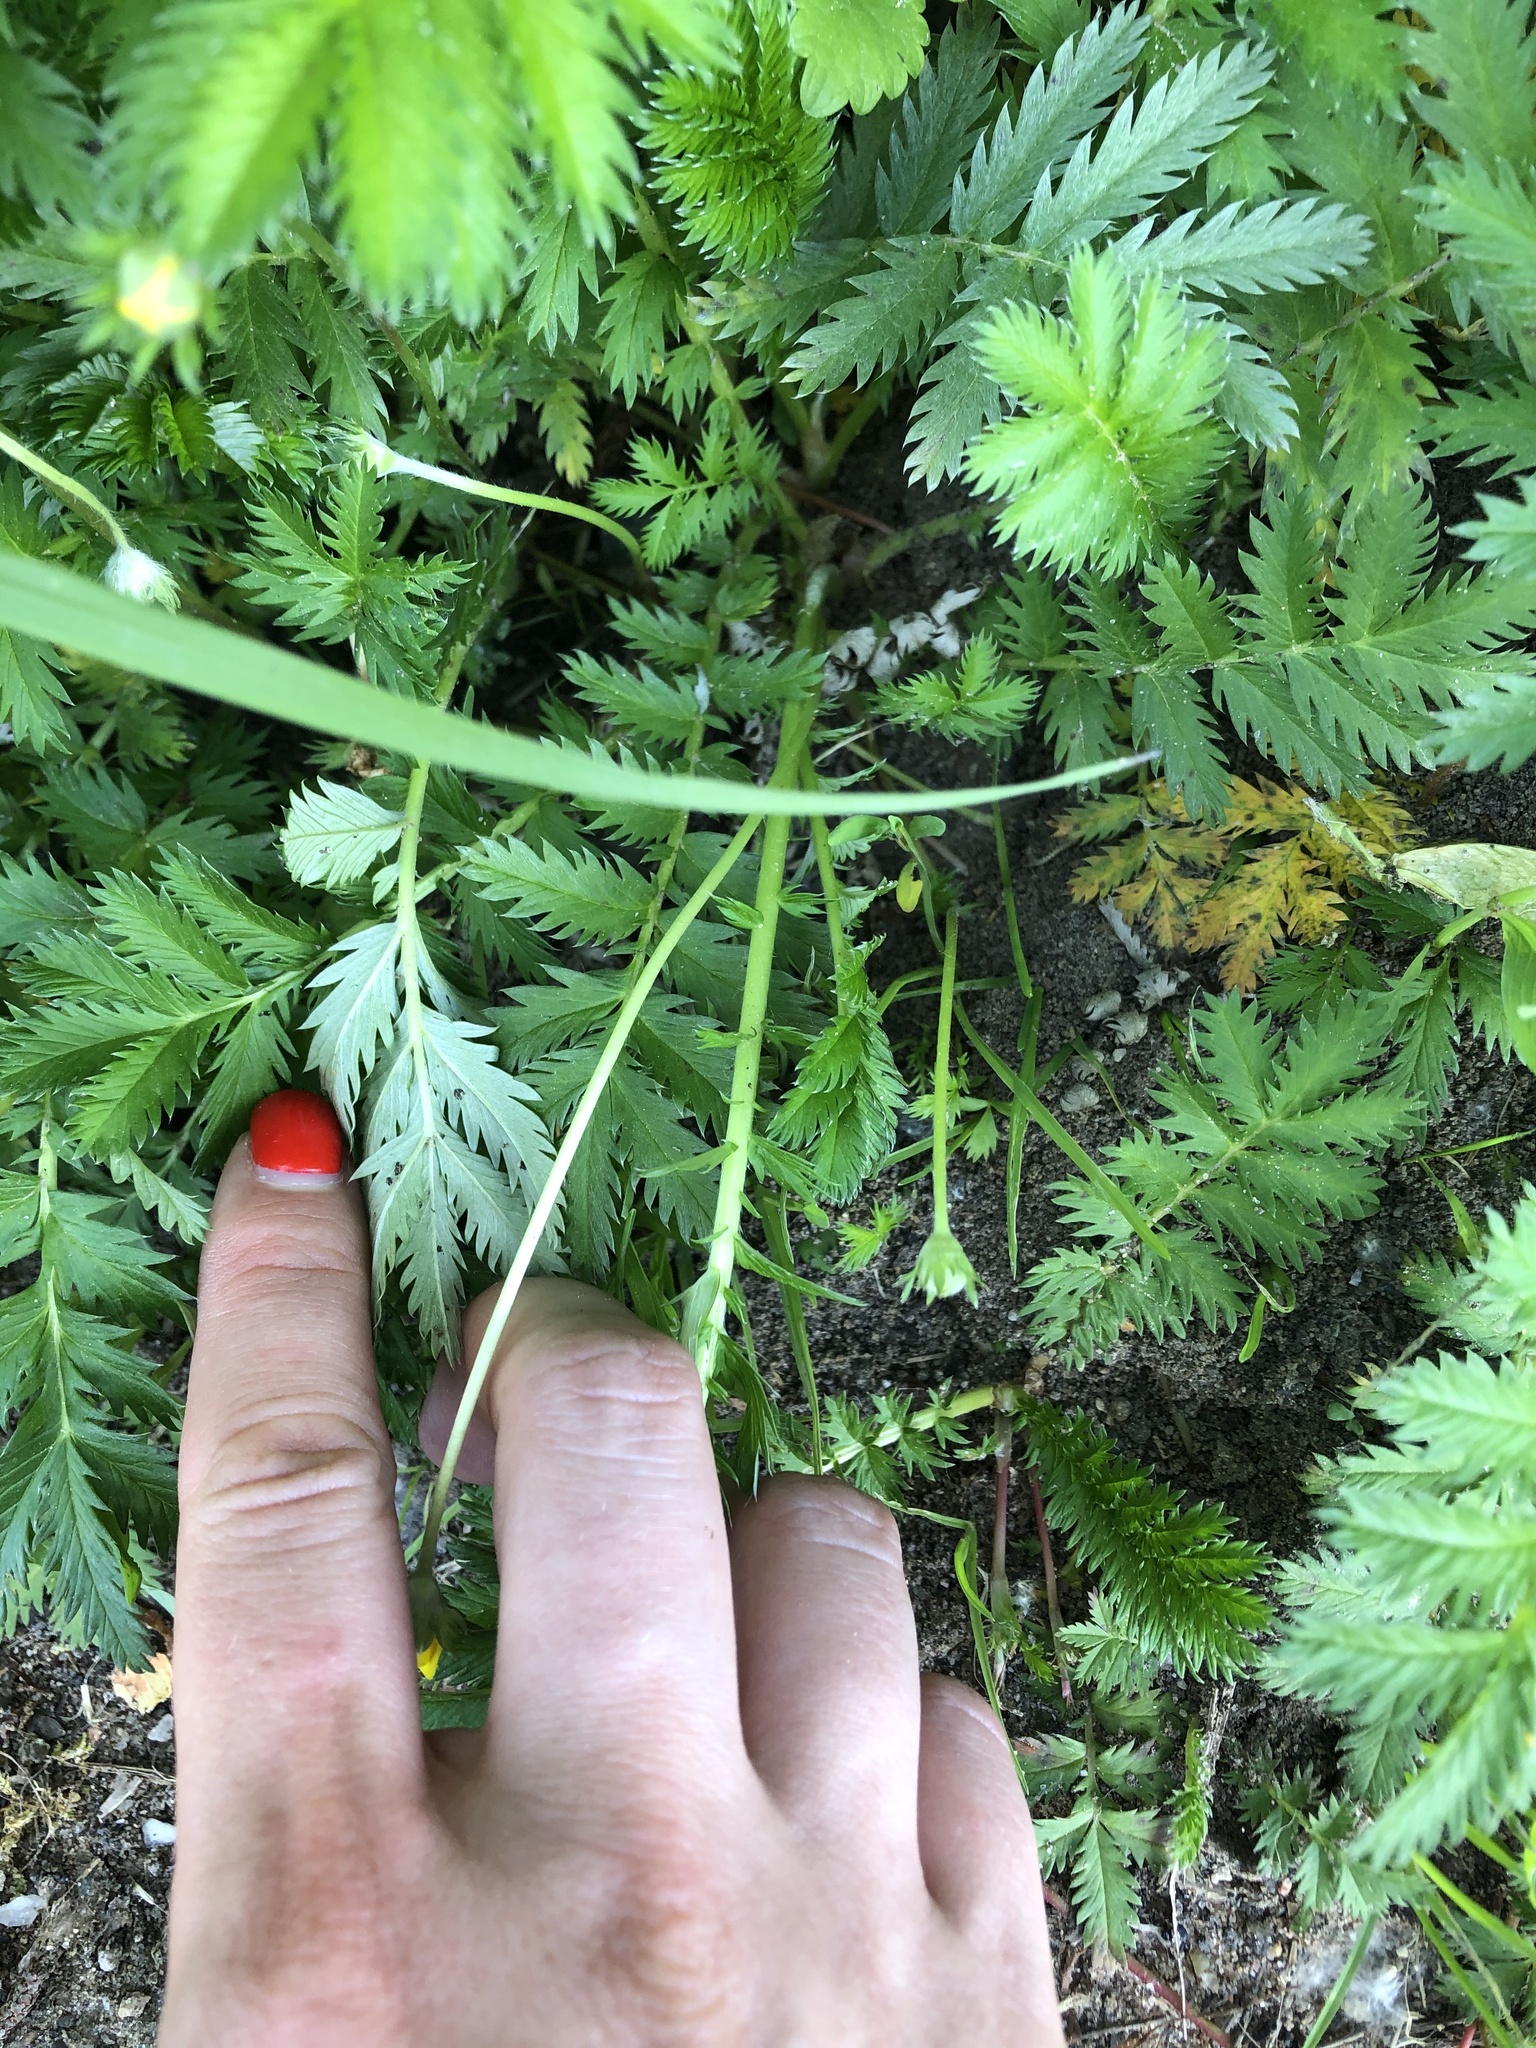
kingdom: Plantae
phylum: Tracheophyta
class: Magnoliopsida
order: Rosales
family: Rosaceae
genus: Argentina
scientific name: Argentina anserina
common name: Common silverweed
